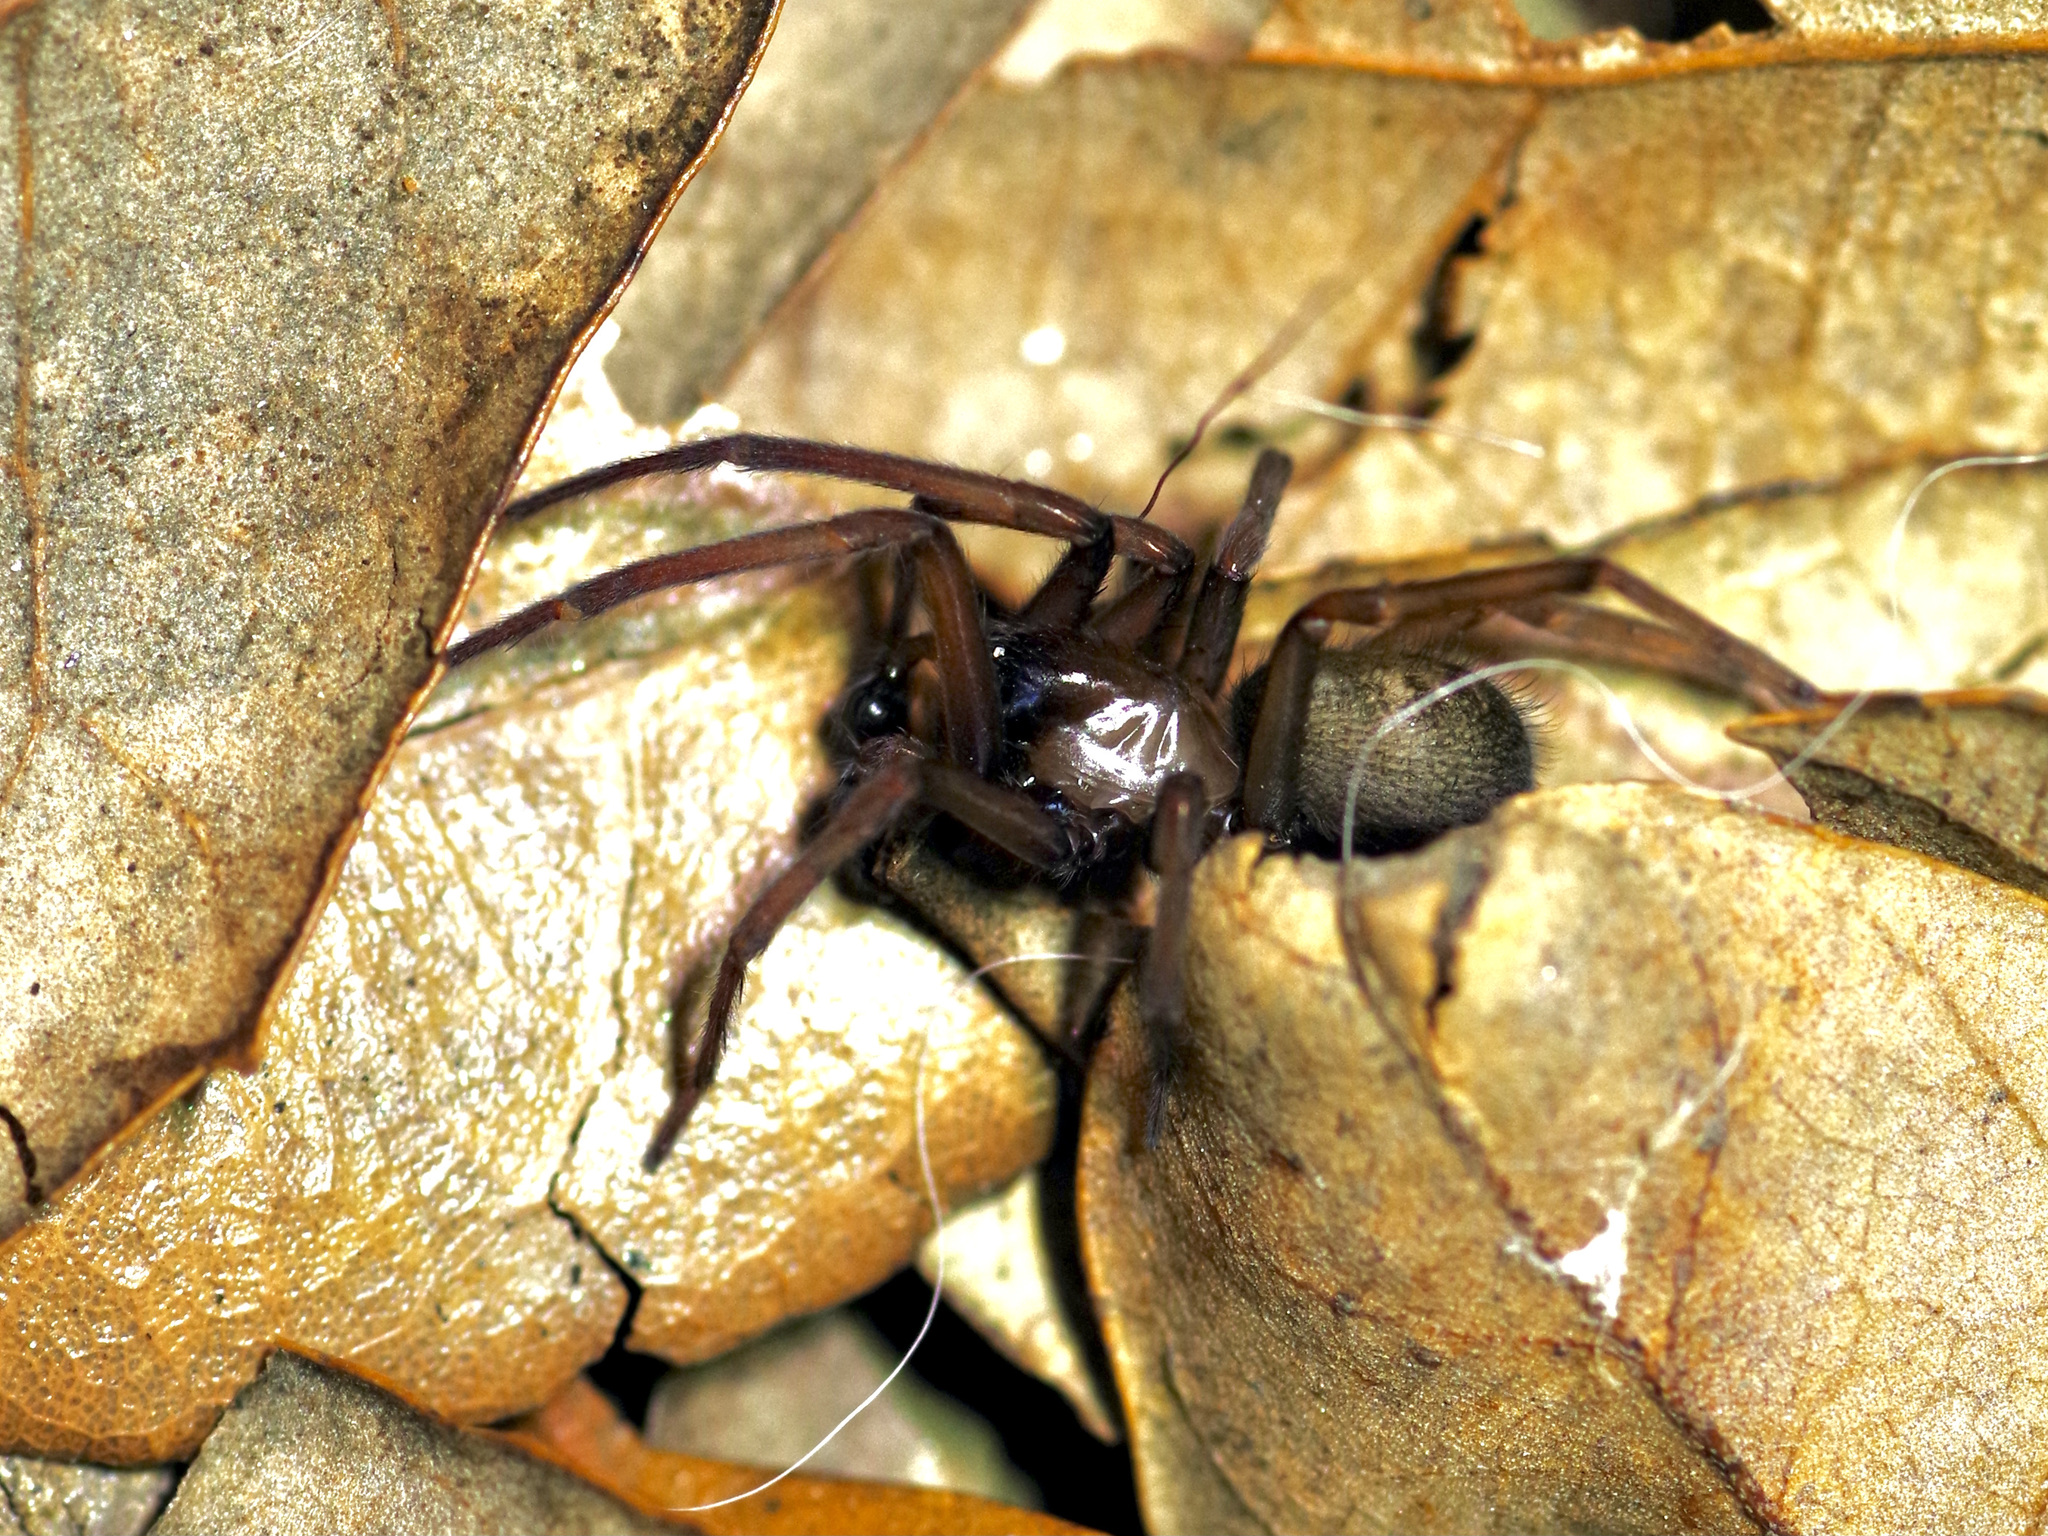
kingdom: Animalia
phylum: Arthropoda
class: Arachnida
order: Araneae
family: Desidae
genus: Metaltella
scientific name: Metaltella simoni
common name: Cribellate spider
